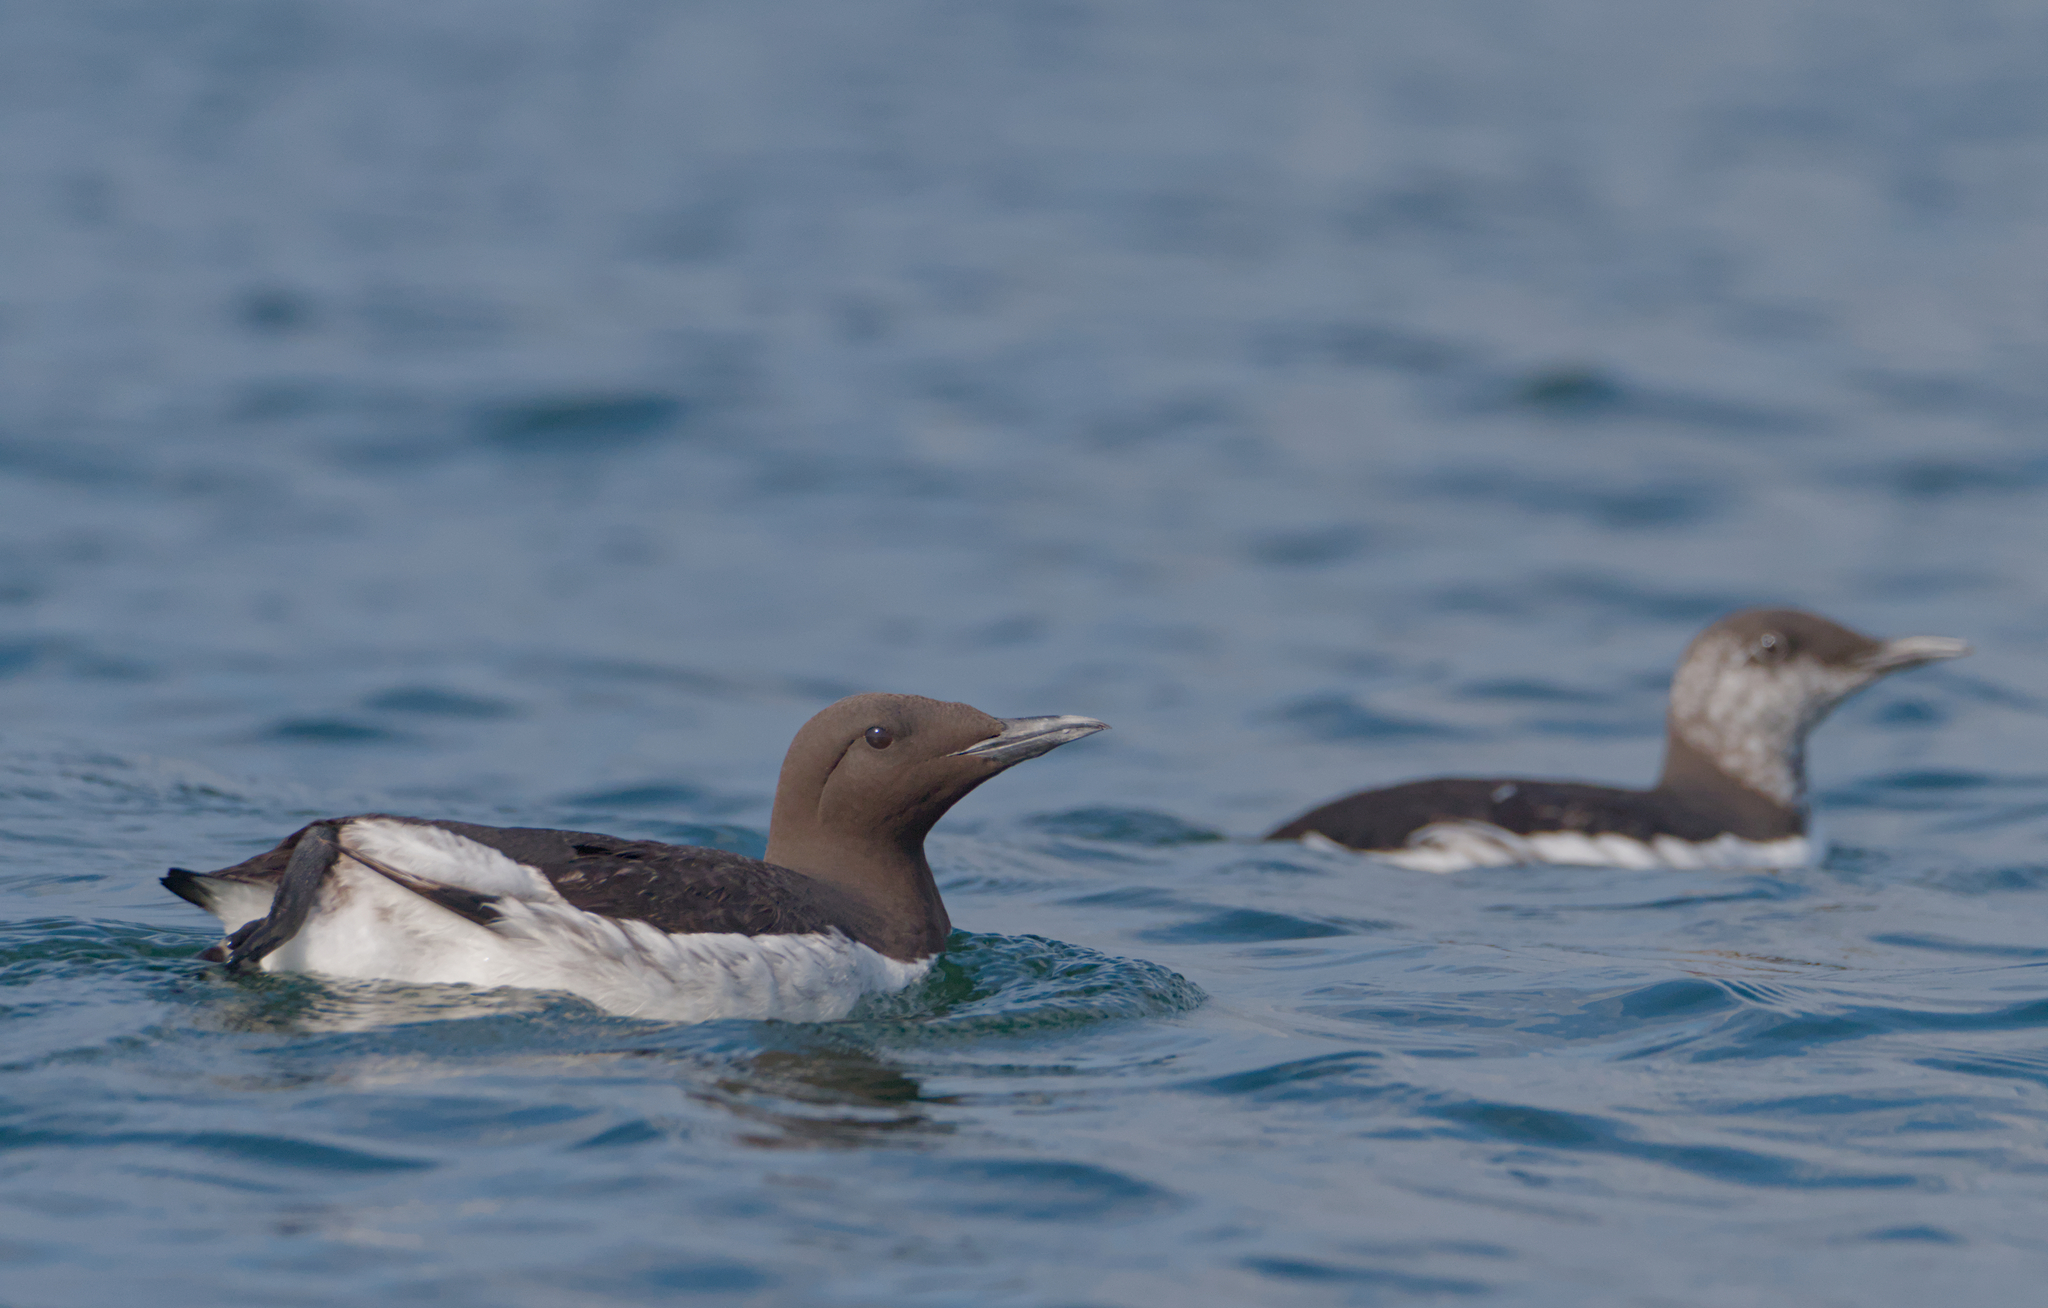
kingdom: Animalia
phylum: Chordata
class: Aves
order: Charadriiformes
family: Alcidae
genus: Uria
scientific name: Uria aalge
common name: Common murre
